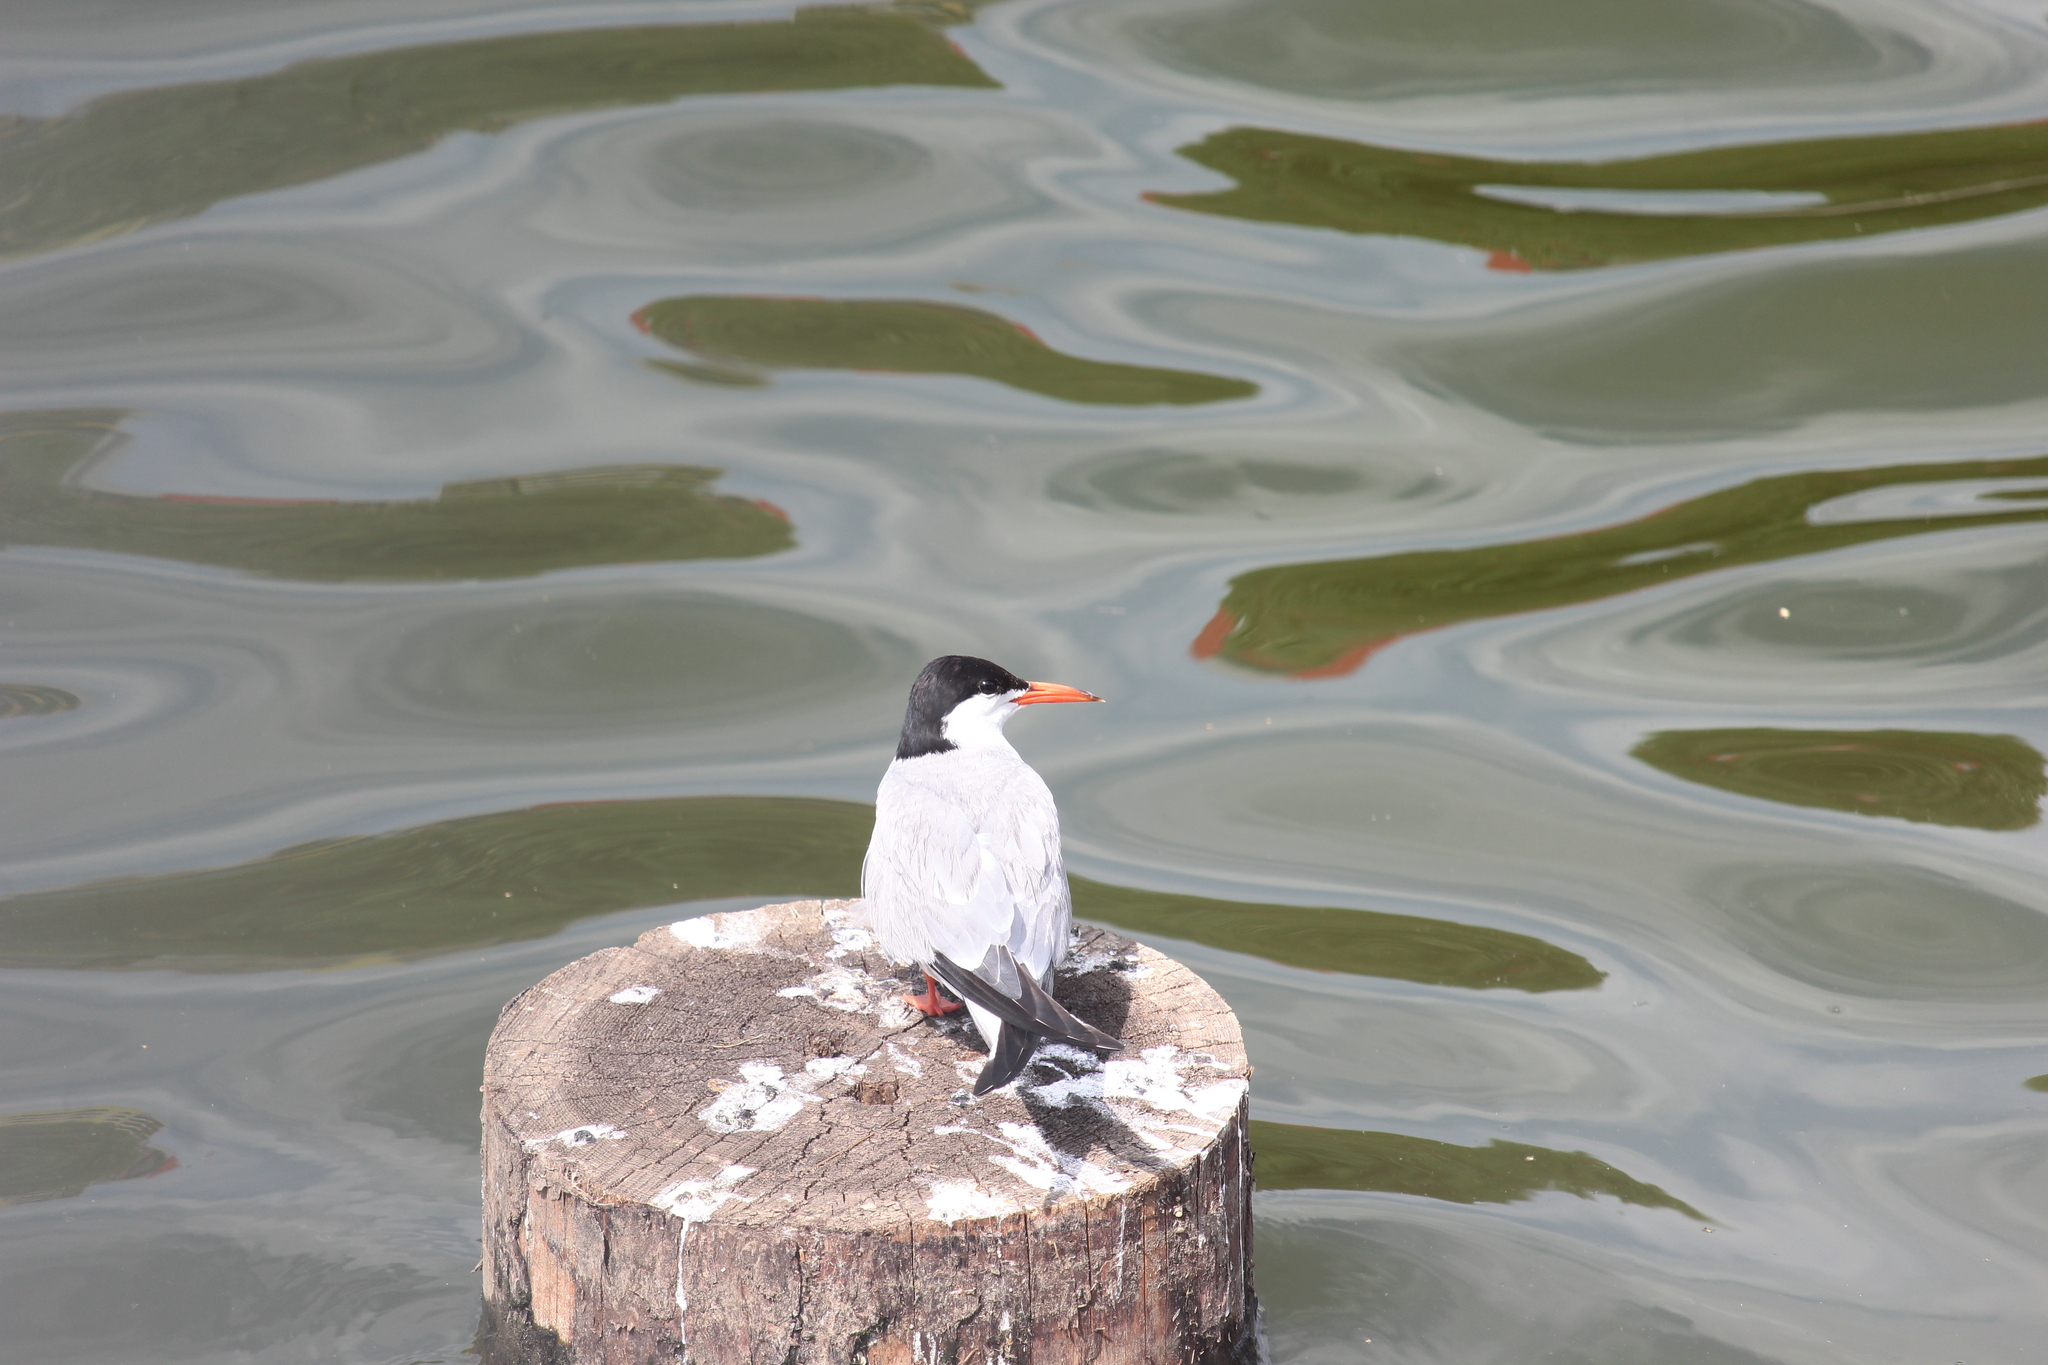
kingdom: Animalia
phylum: Chordata
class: Aves
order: Charadriiformes
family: Laridae
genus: Sterna
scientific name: Sterna hirundo
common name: Common tern
